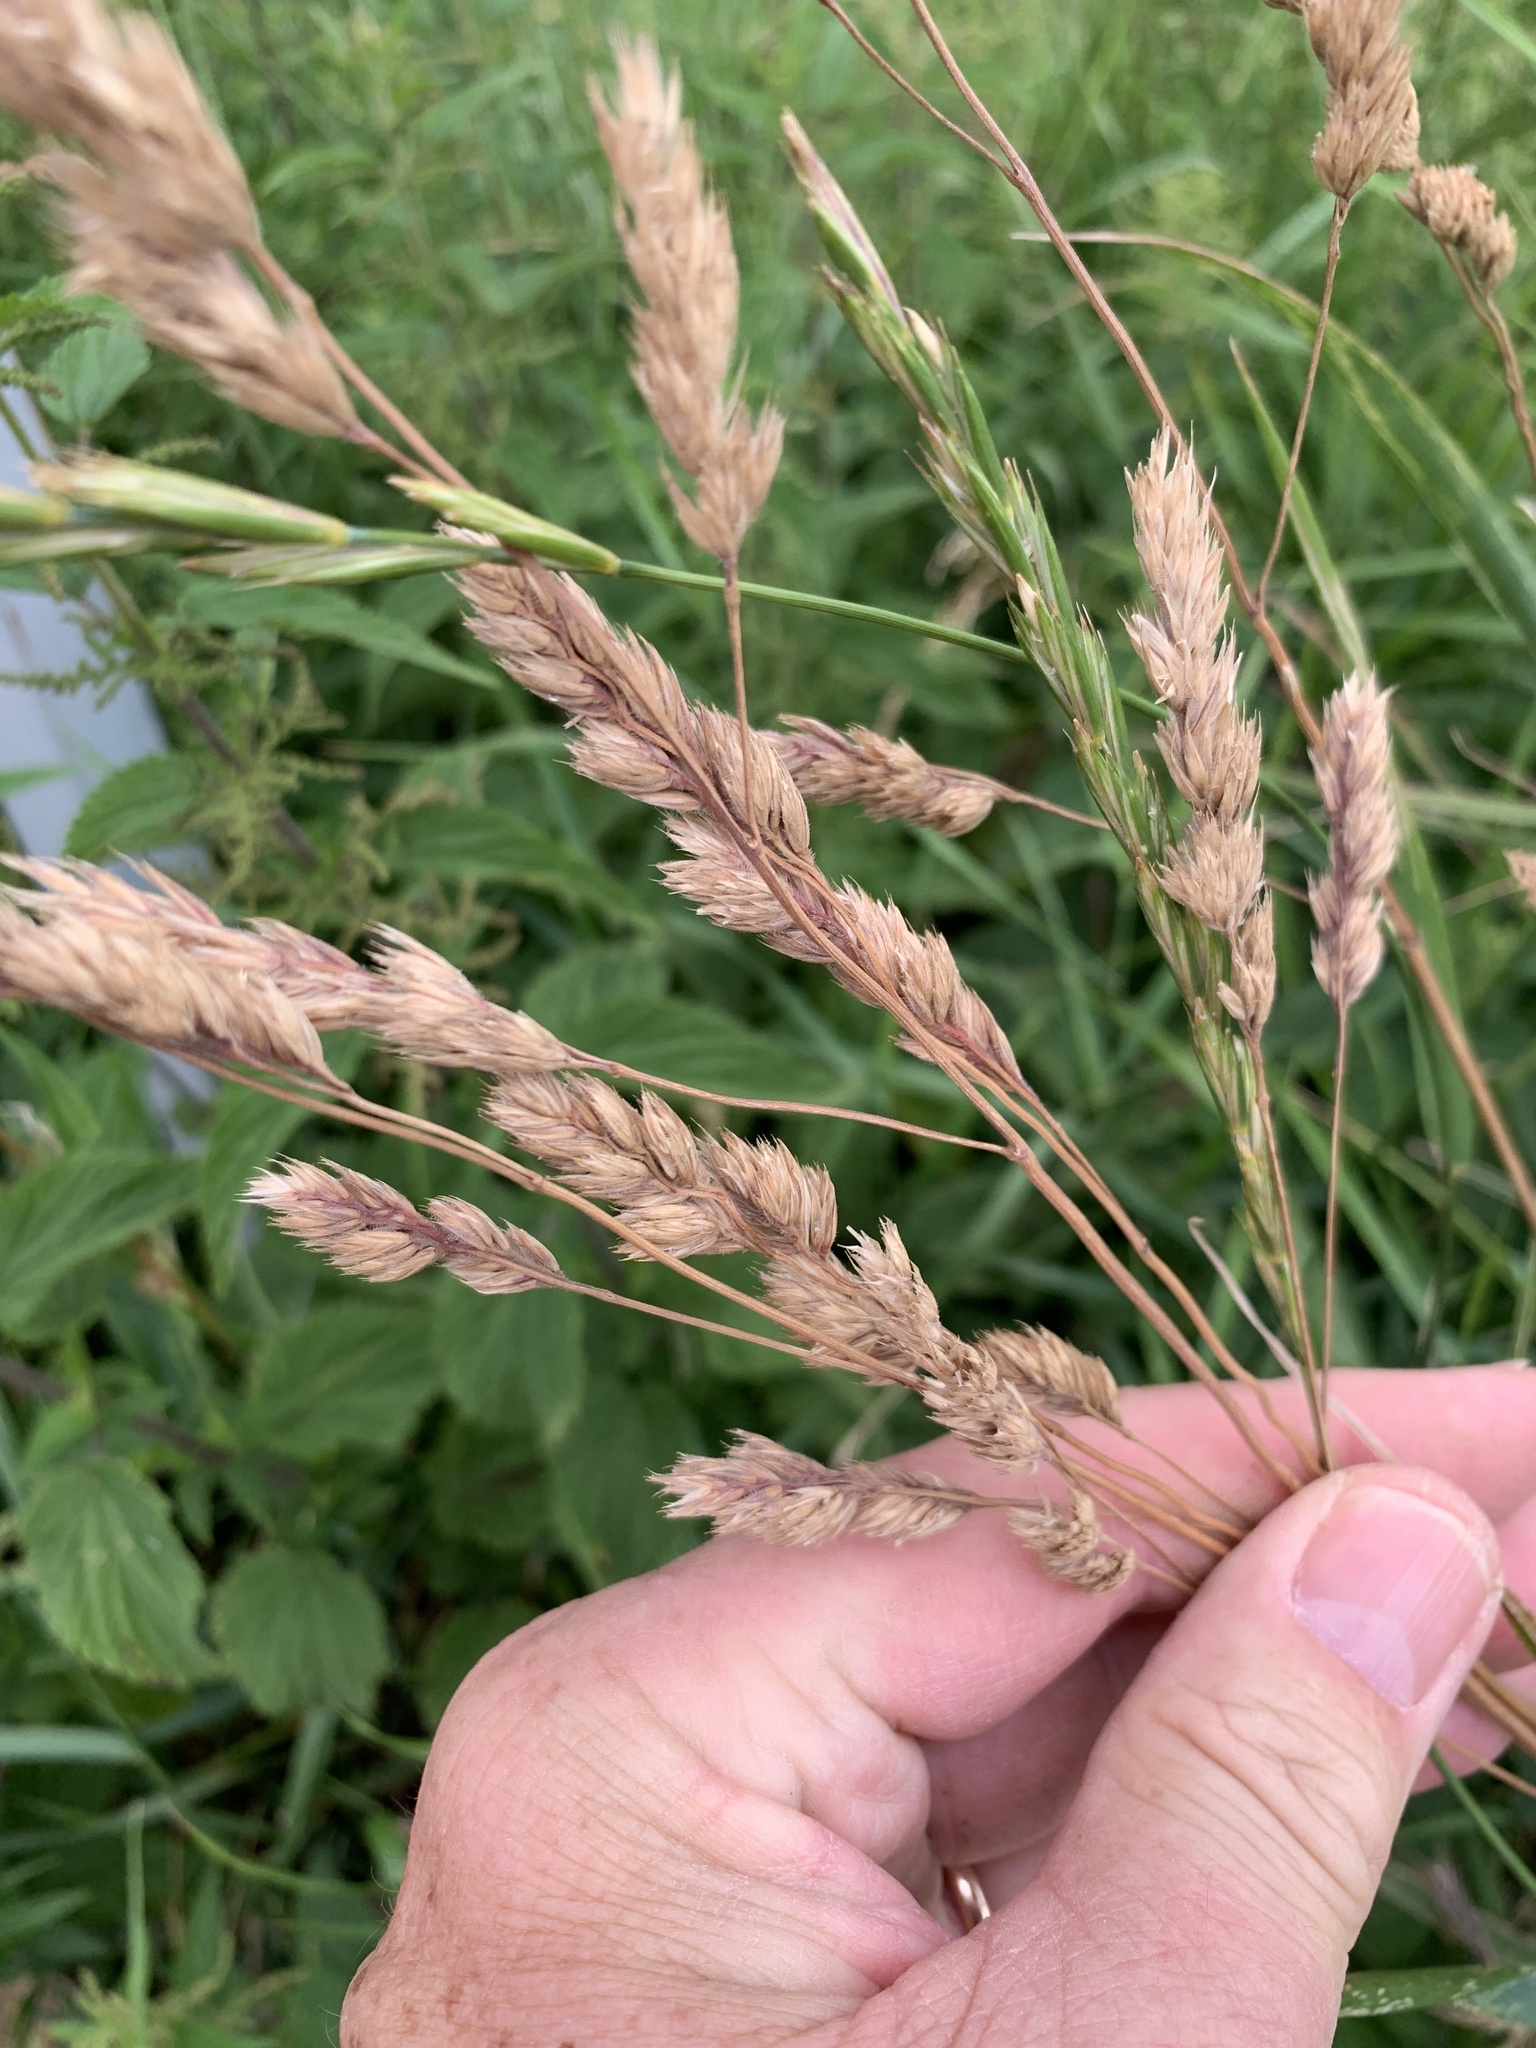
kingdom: Plantae
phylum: Tracheophyta
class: Liliopsida
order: Poales
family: Poaceae
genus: Dactylis
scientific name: Dactylis glomerata
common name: Orchardgrass
